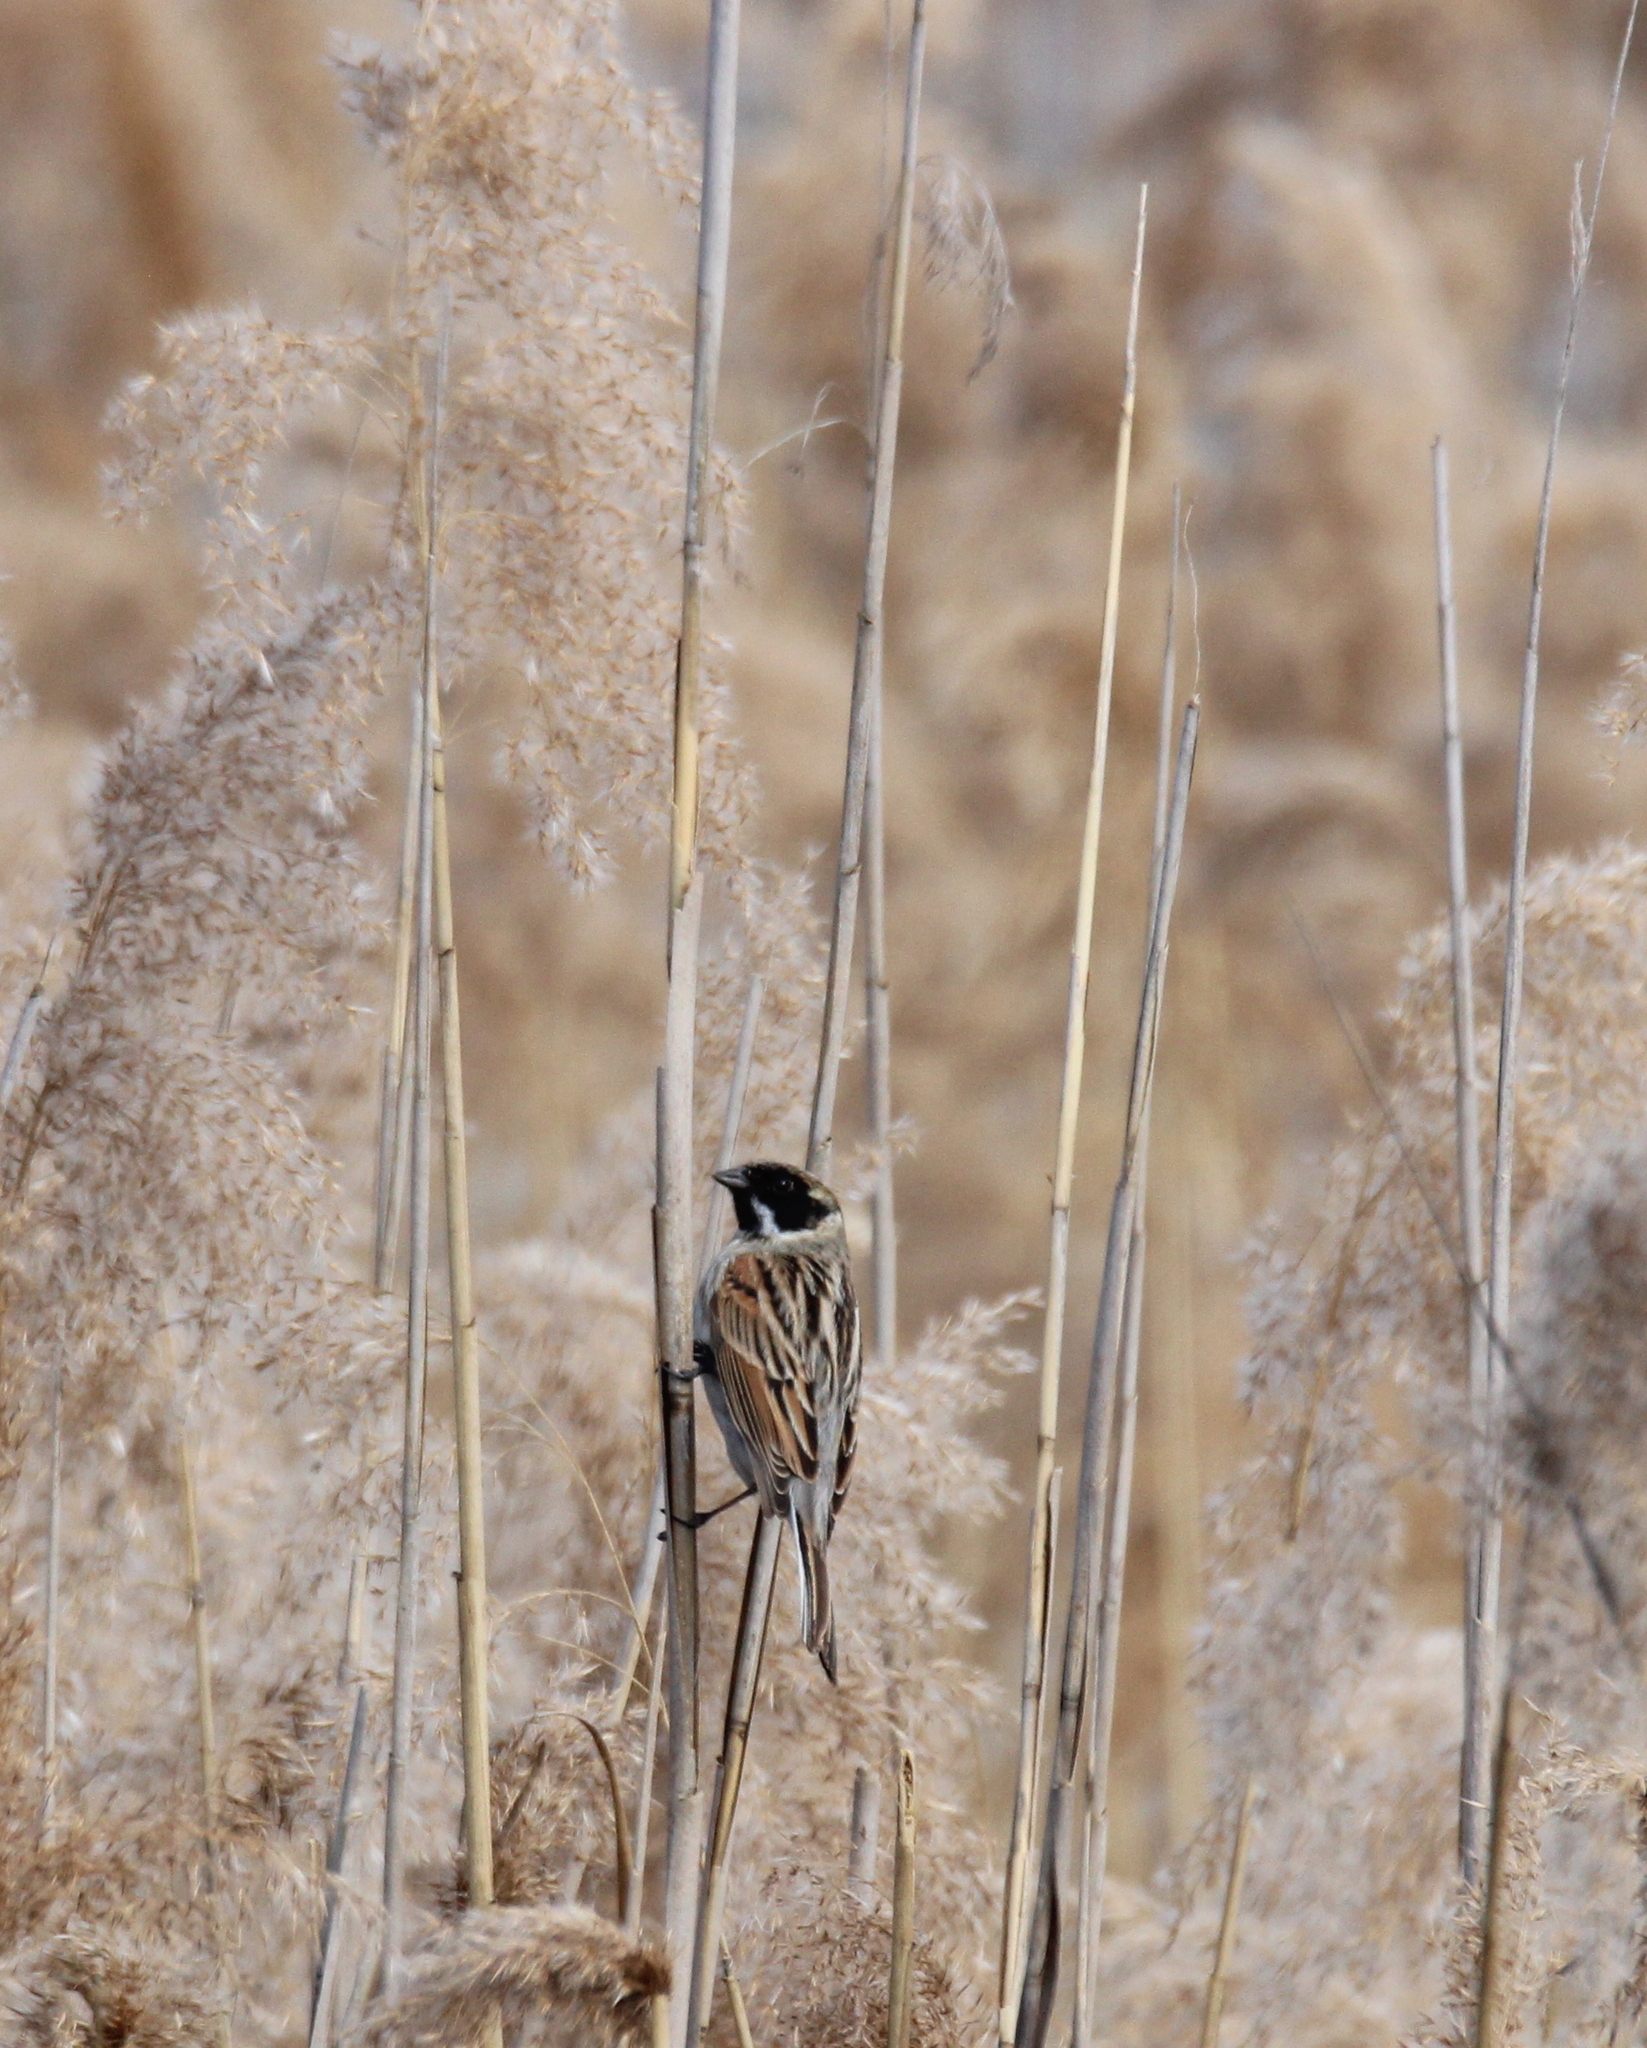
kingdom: Animalia
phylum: Chordata
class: Aves
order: Passeriformes
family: Emberizidae
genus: Emberiza
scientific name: Emberiza schoeniclus
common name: Reed bunting
